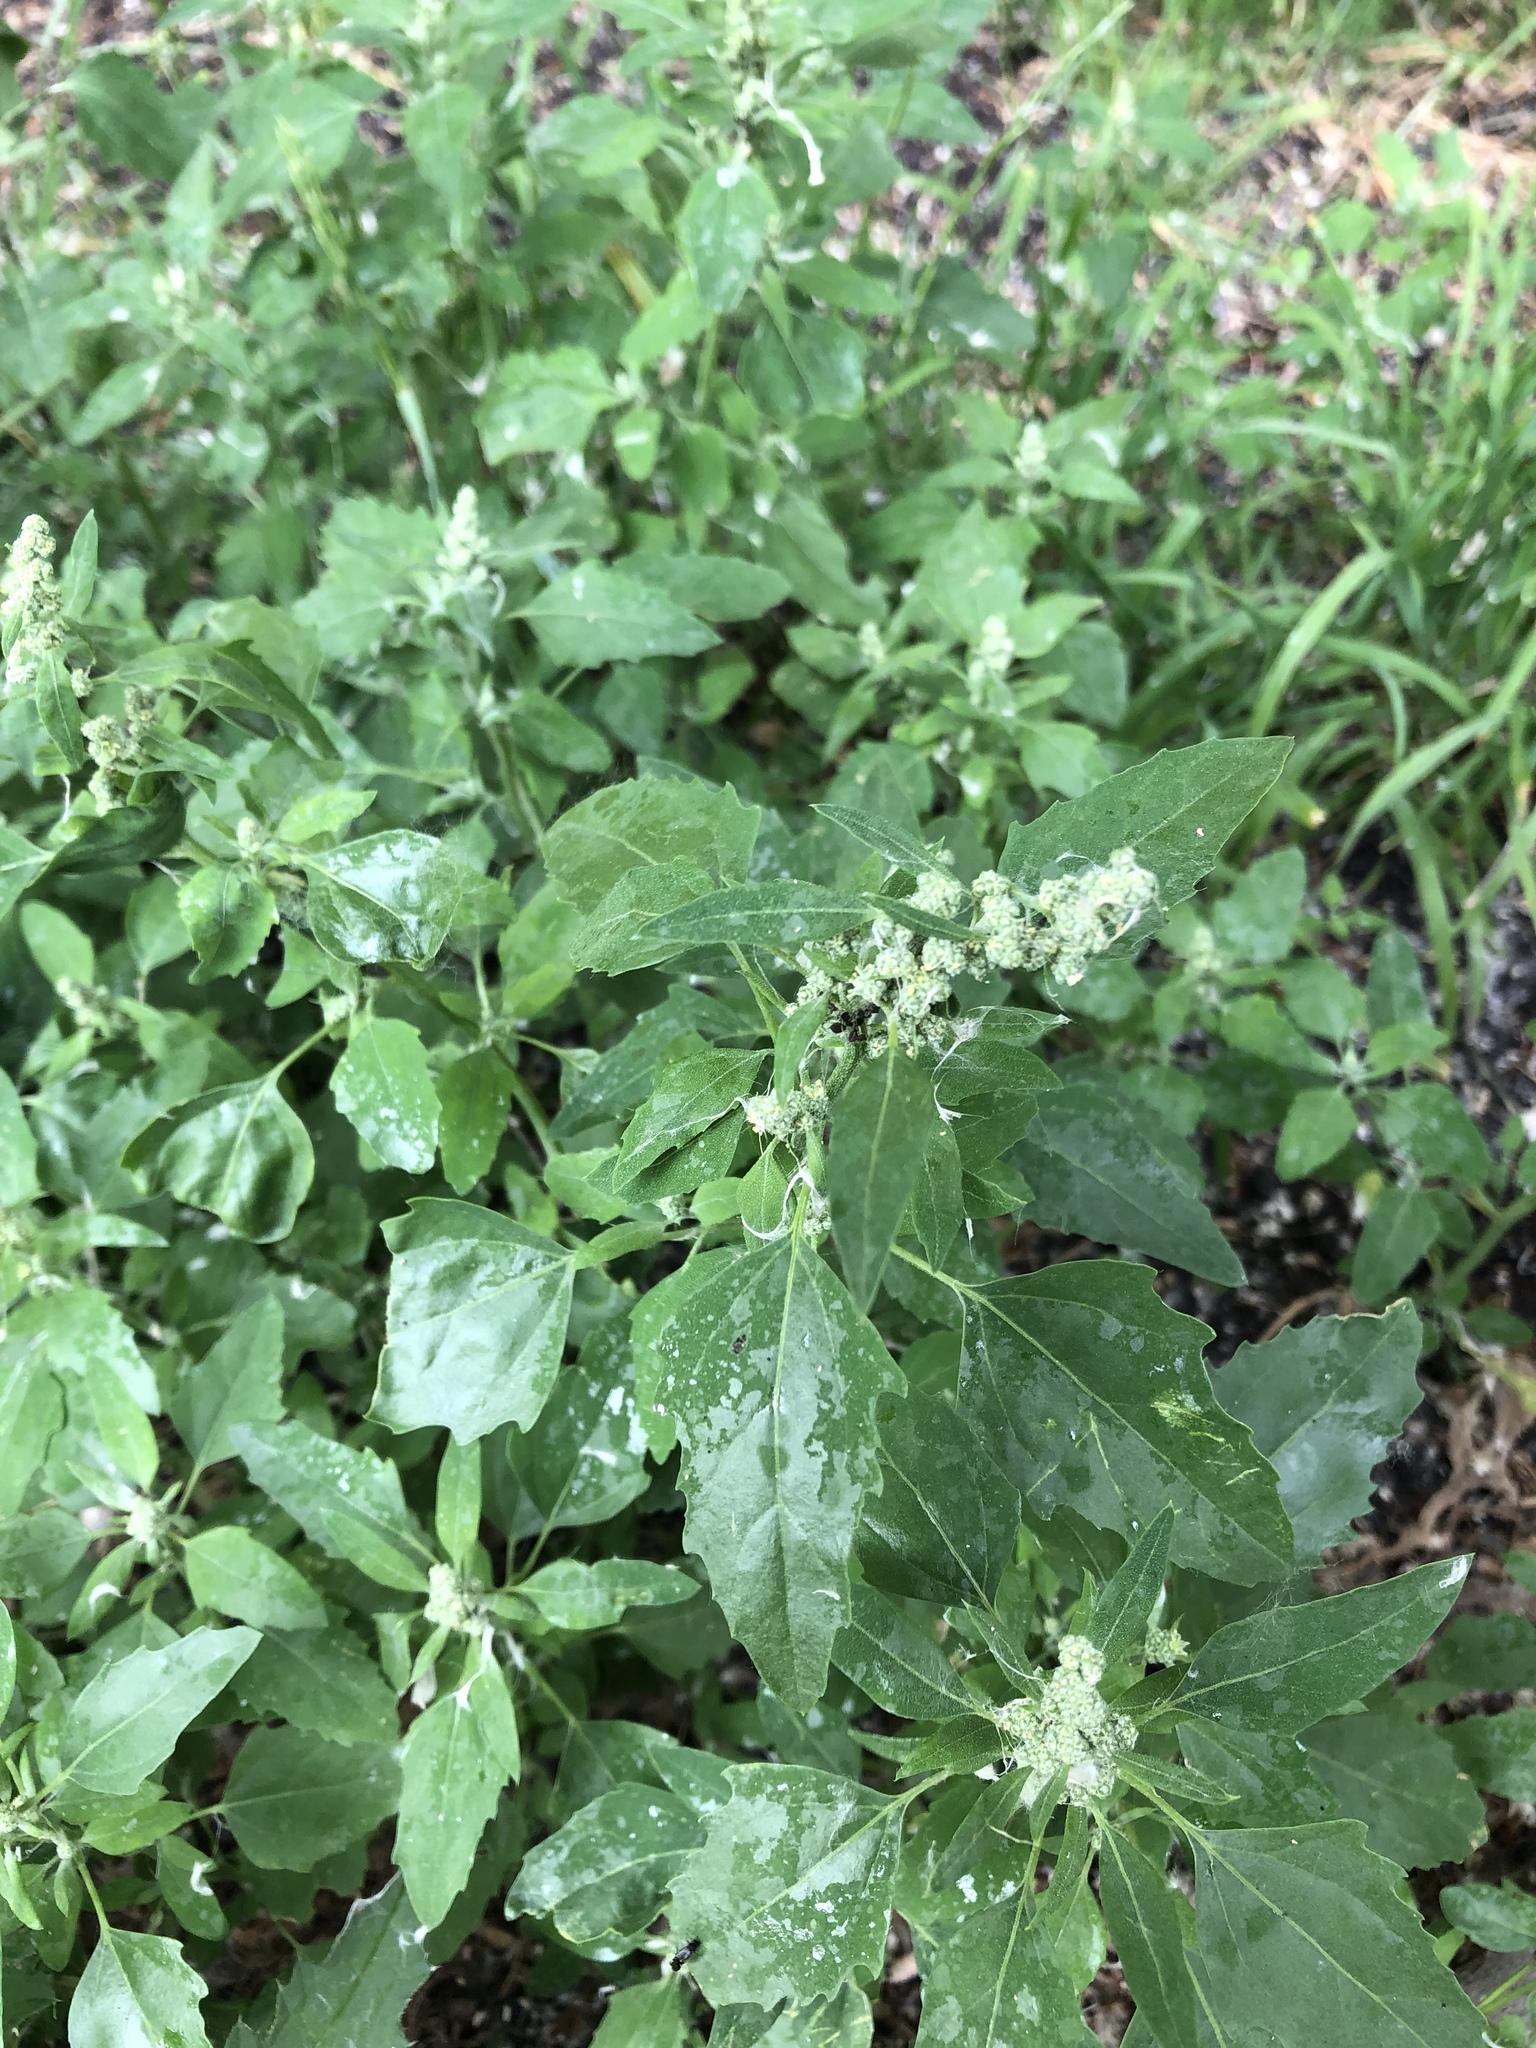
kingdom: Plantae
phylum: Tracheophyta
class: Magnoliopsida
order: Caryophyllales
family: Amaranthaceae
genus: Chenopodium
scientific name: Chenopodium album
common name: Fat-hen
